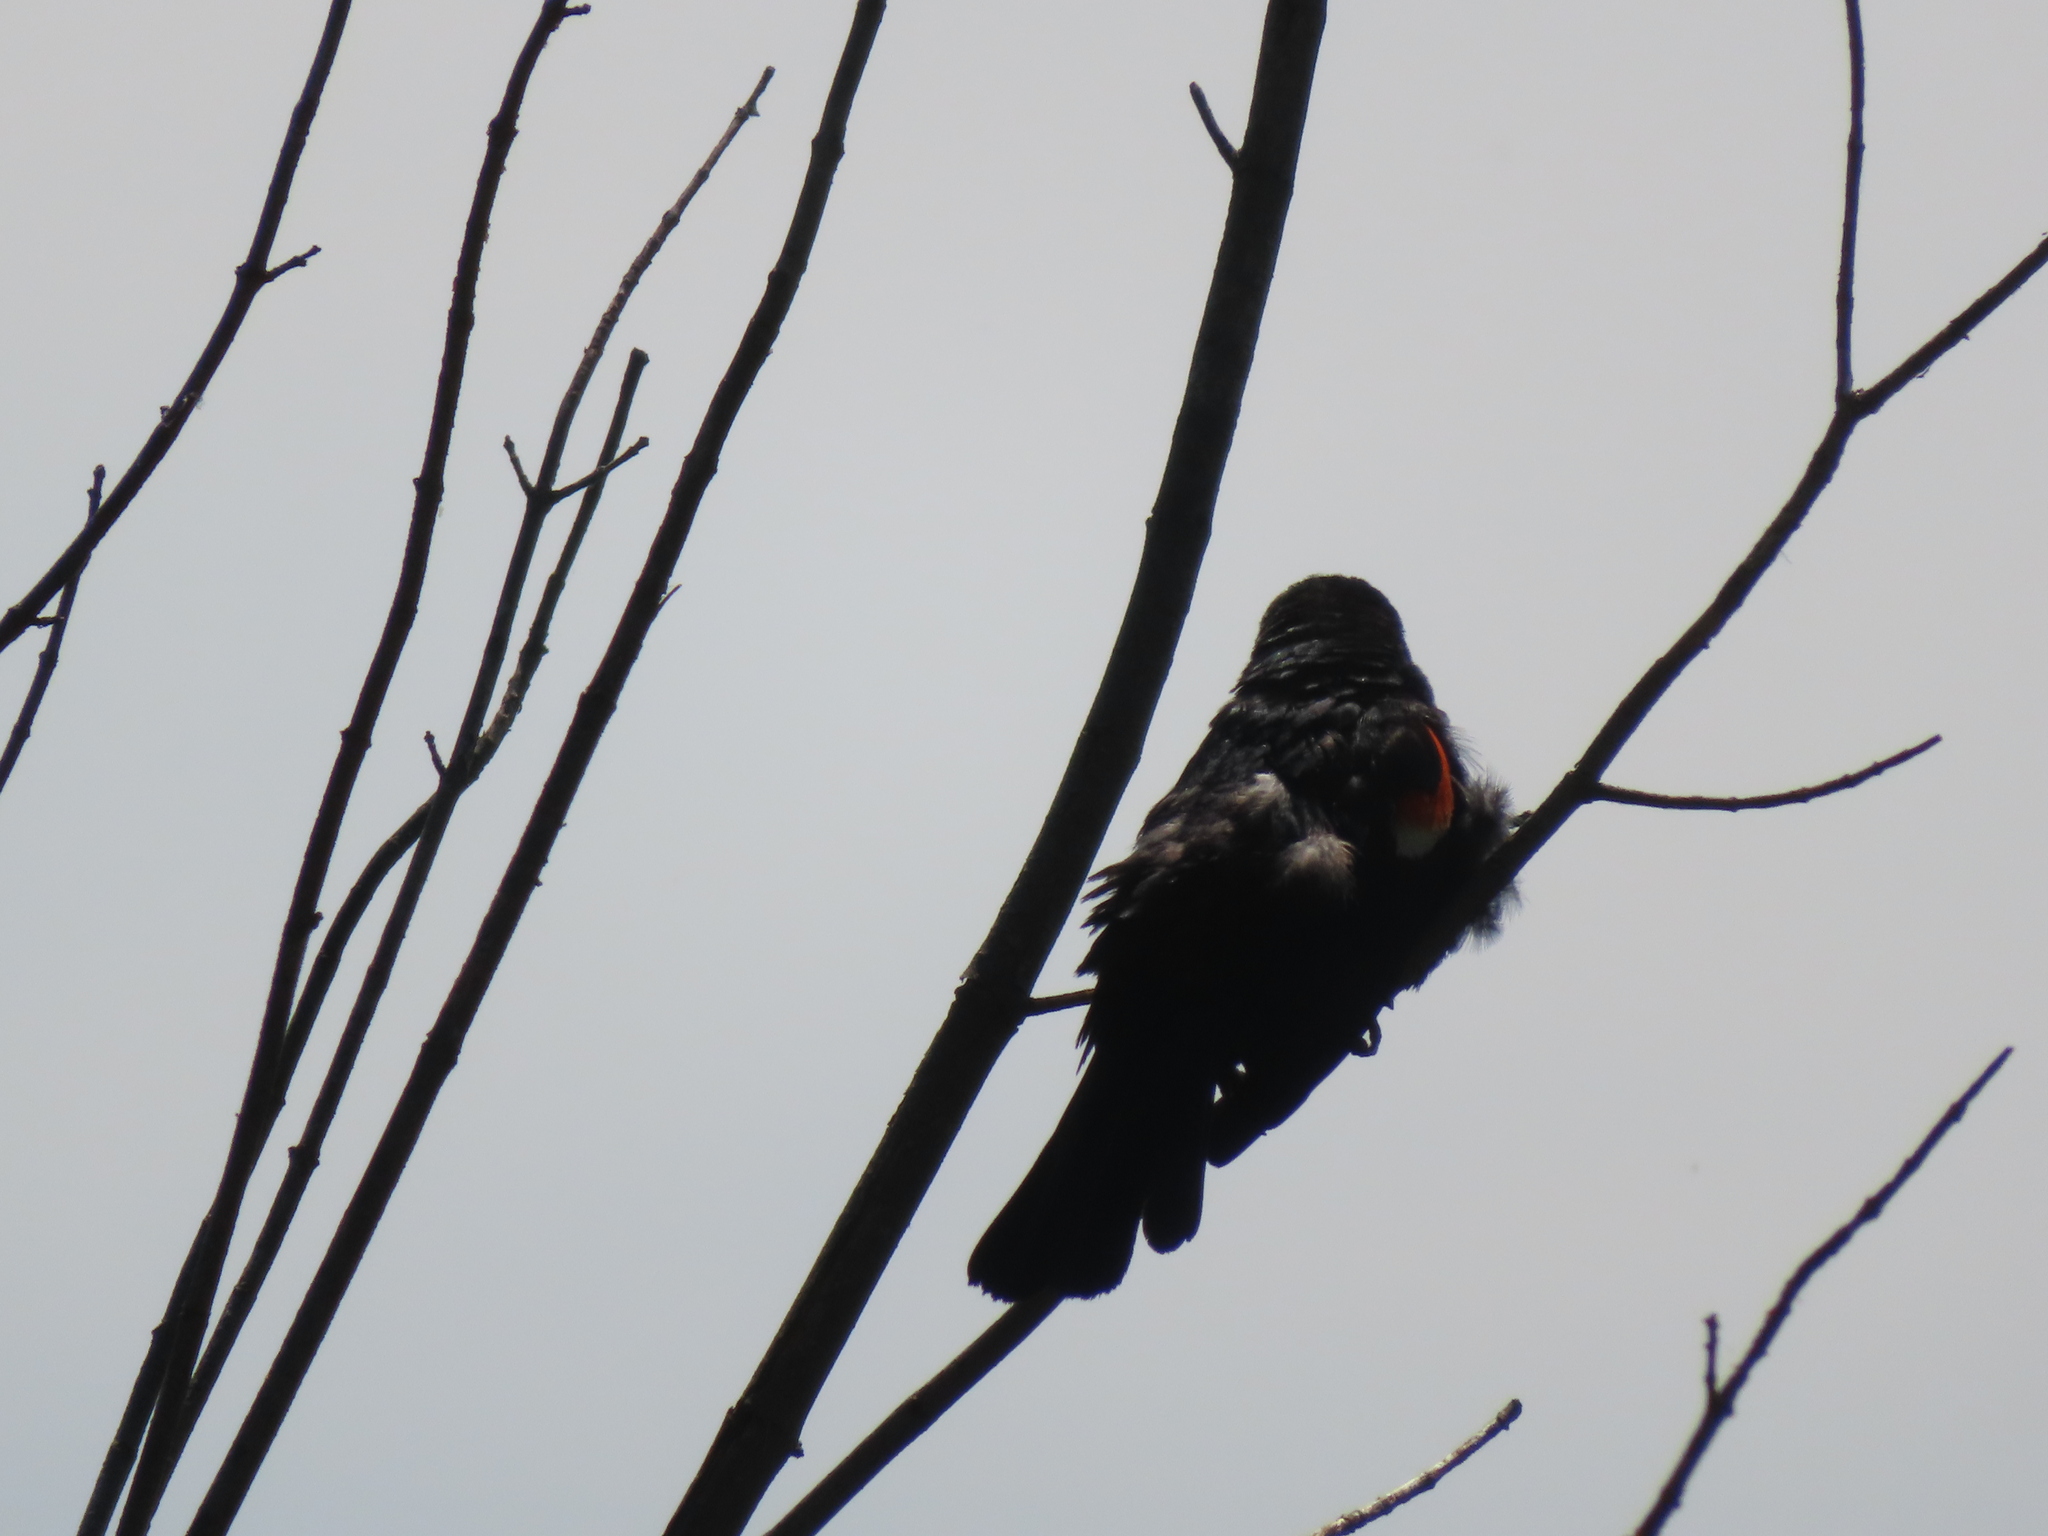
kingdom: Animalia
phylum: Chordata
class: Aves
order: Passeriformes
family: Icteridae
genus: Agelaius
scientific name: Agelaius phoeniceus
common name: Red-winged blackbird
